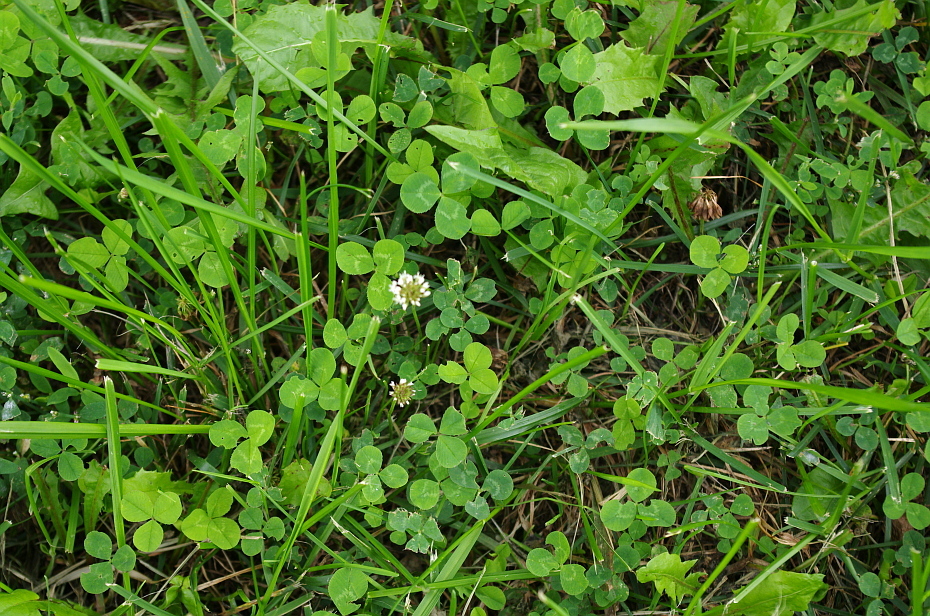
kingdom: Plantae
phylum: Tracheophyta
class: Magnoliopsida
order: Fabales
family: Fabaceae
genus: Trifolium
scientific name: Trifolium repens
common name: White clover
